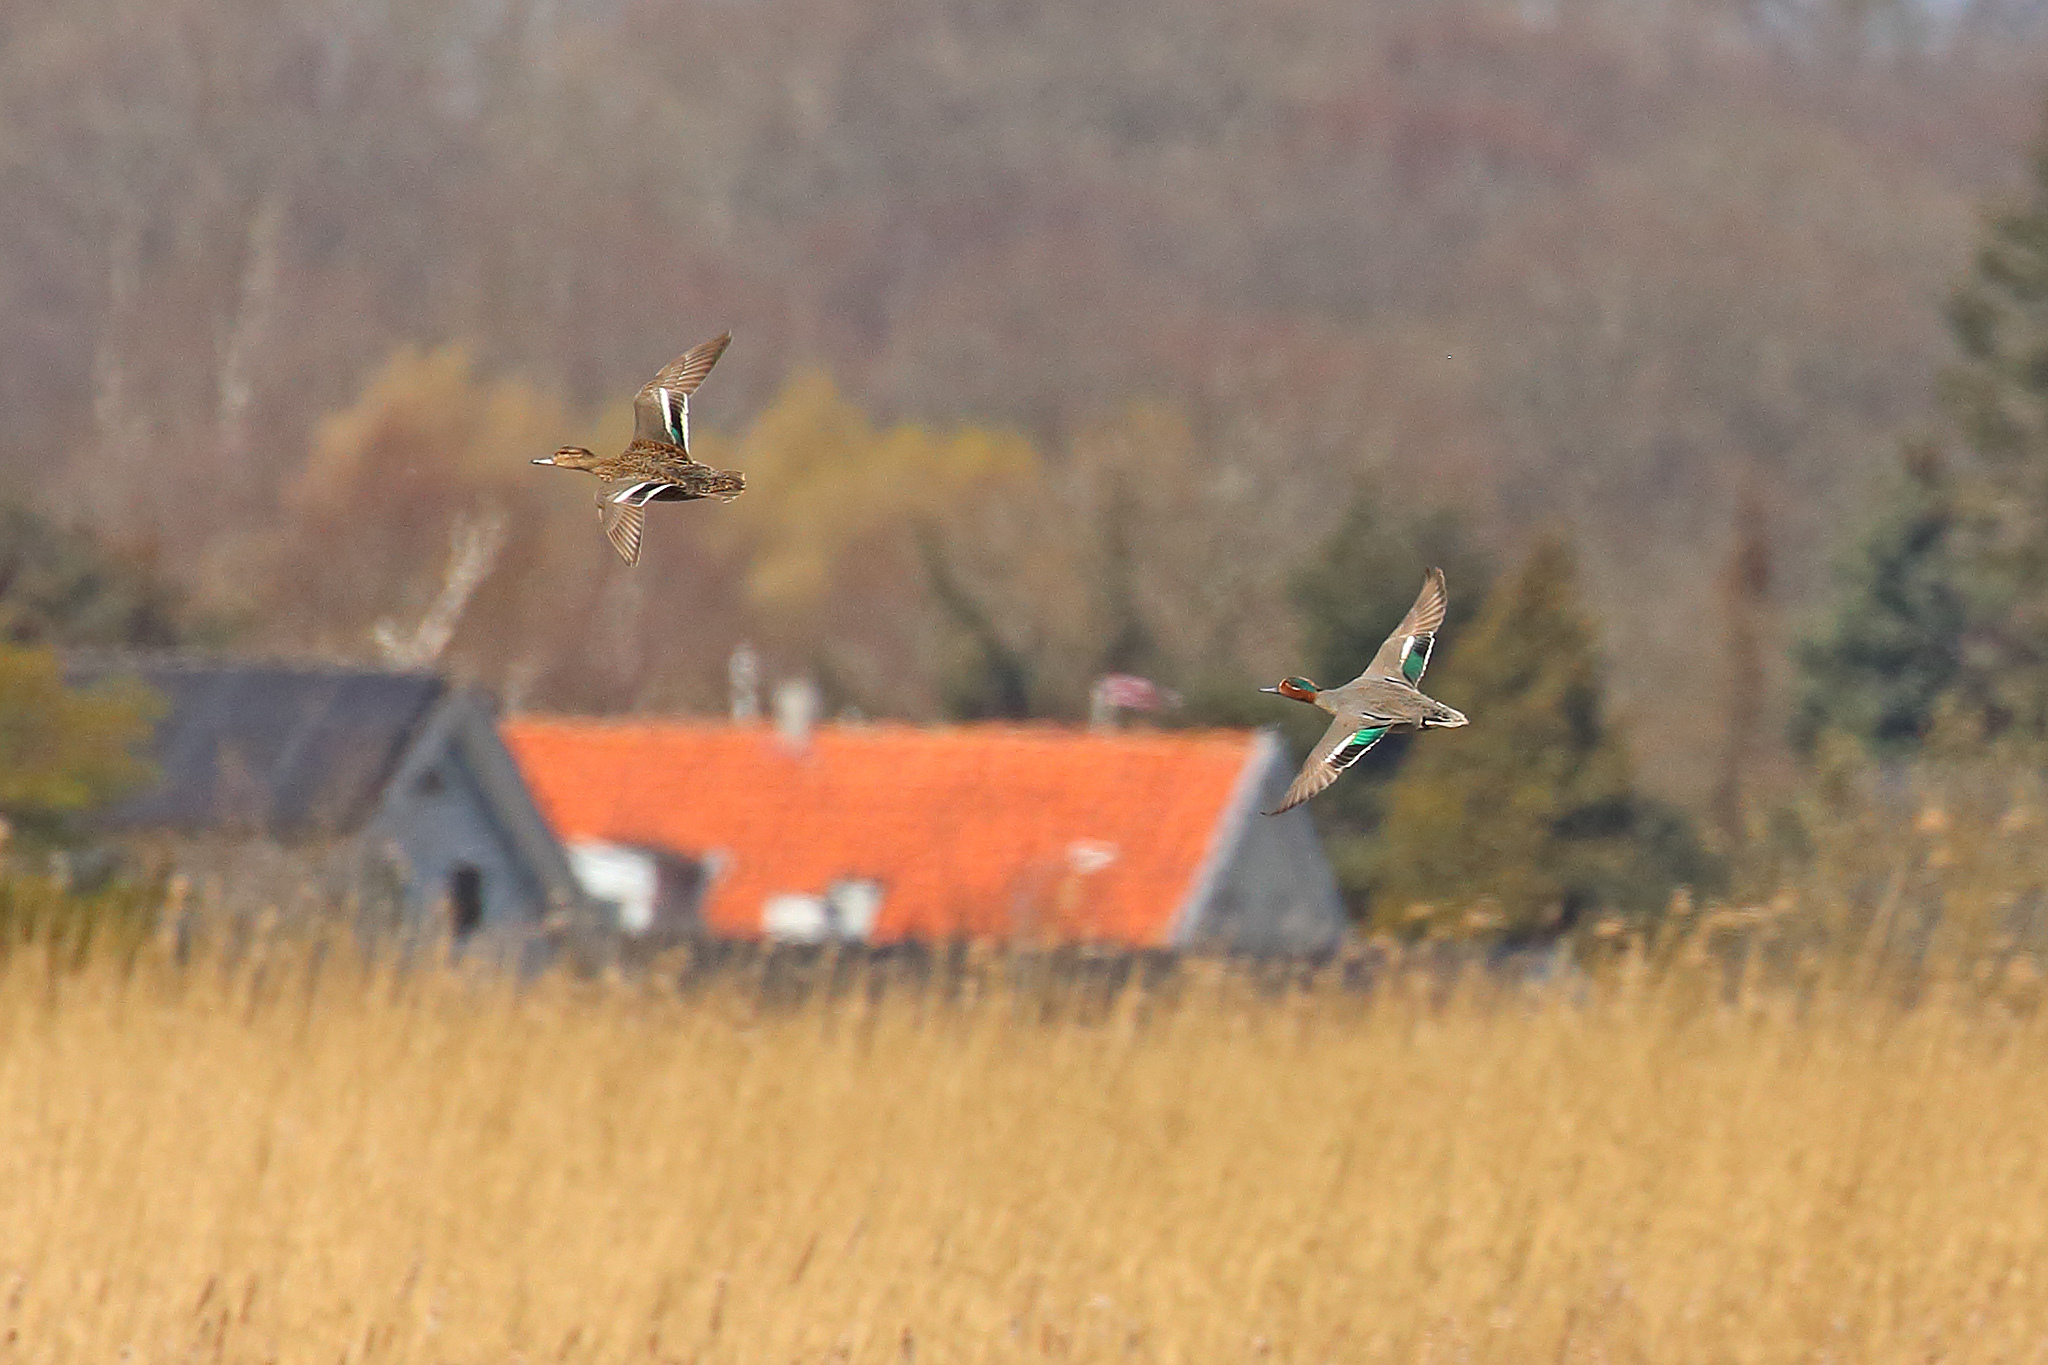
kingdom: Animalia
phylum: Chordata
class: Aves
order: Anseriformes
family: Anatidae
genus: Anas
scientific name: Anas crecca
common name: Eurasian teal
